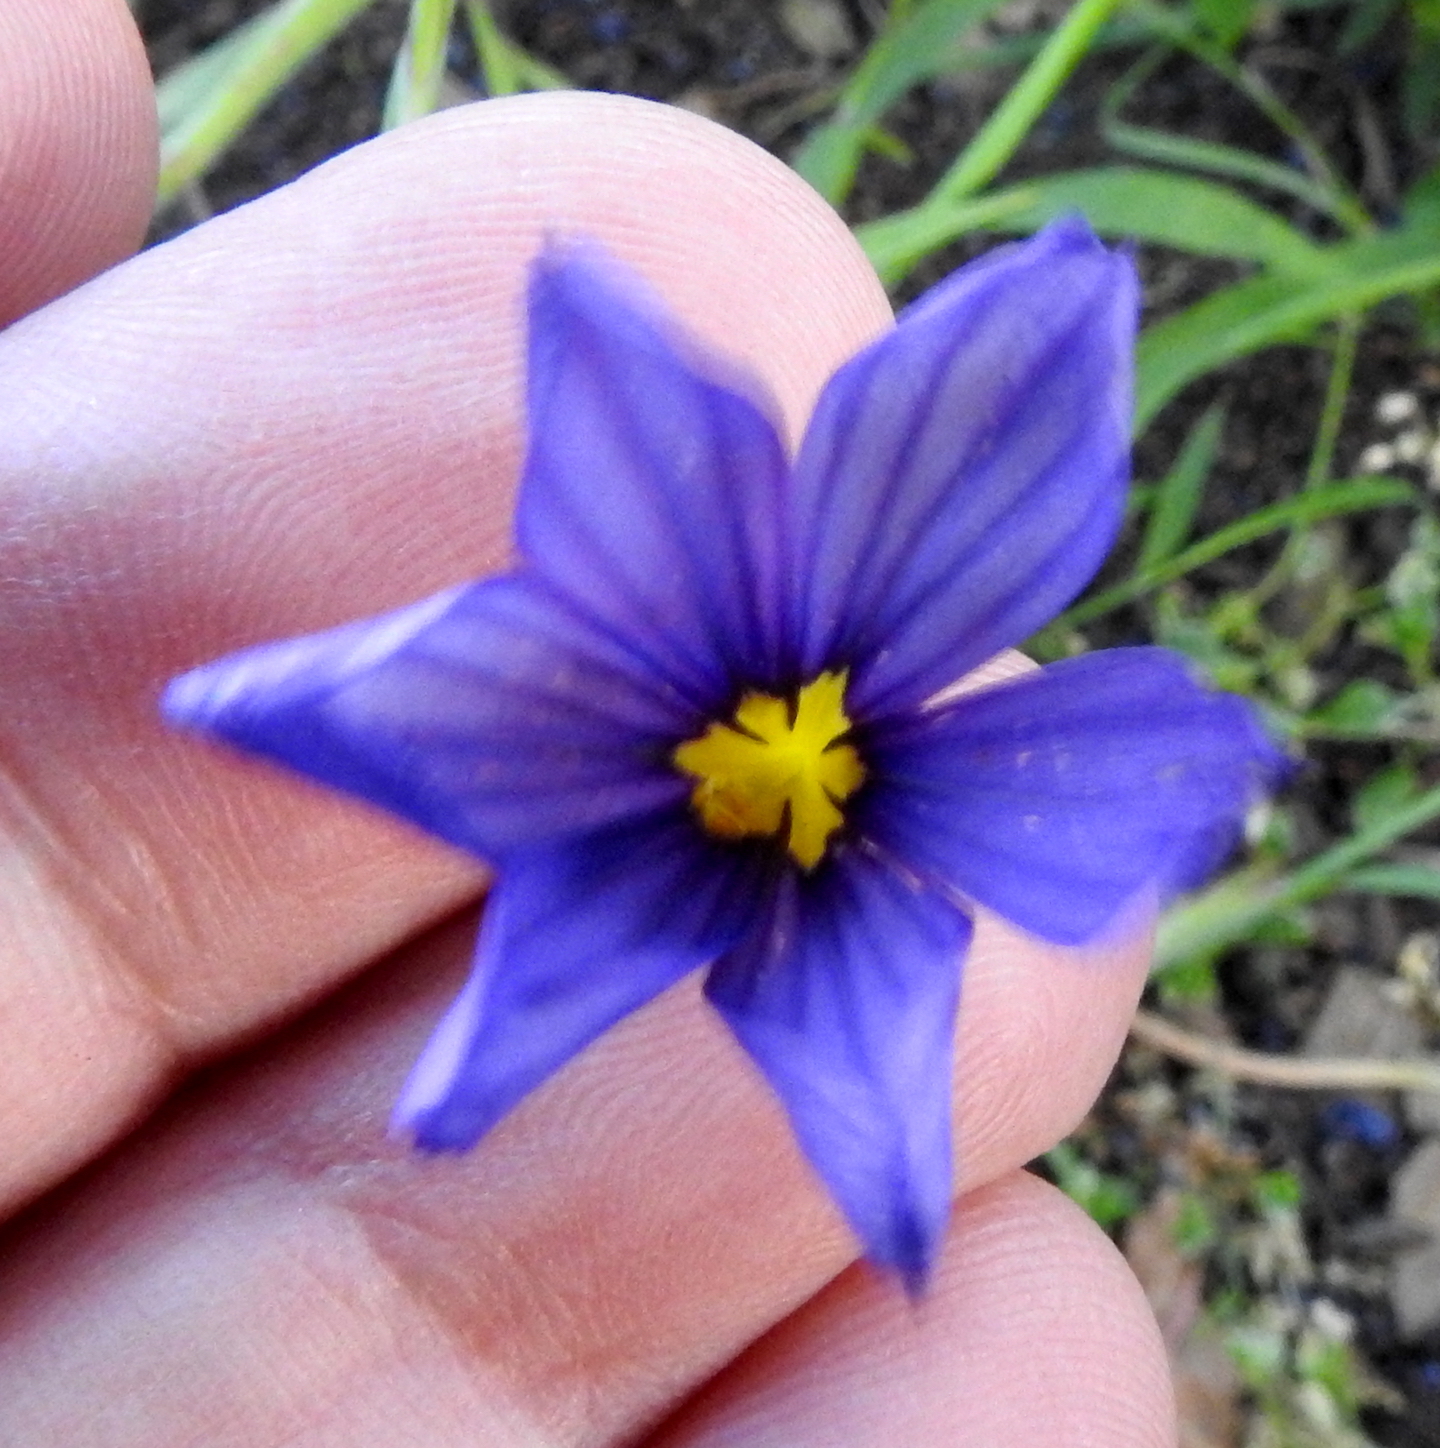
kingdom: Plantae
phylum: Tracheophyta
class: Liliopsida
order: Asparagales
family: Iridaceae
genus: Sisyrinchium
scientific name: Sisyrinchium bellum
